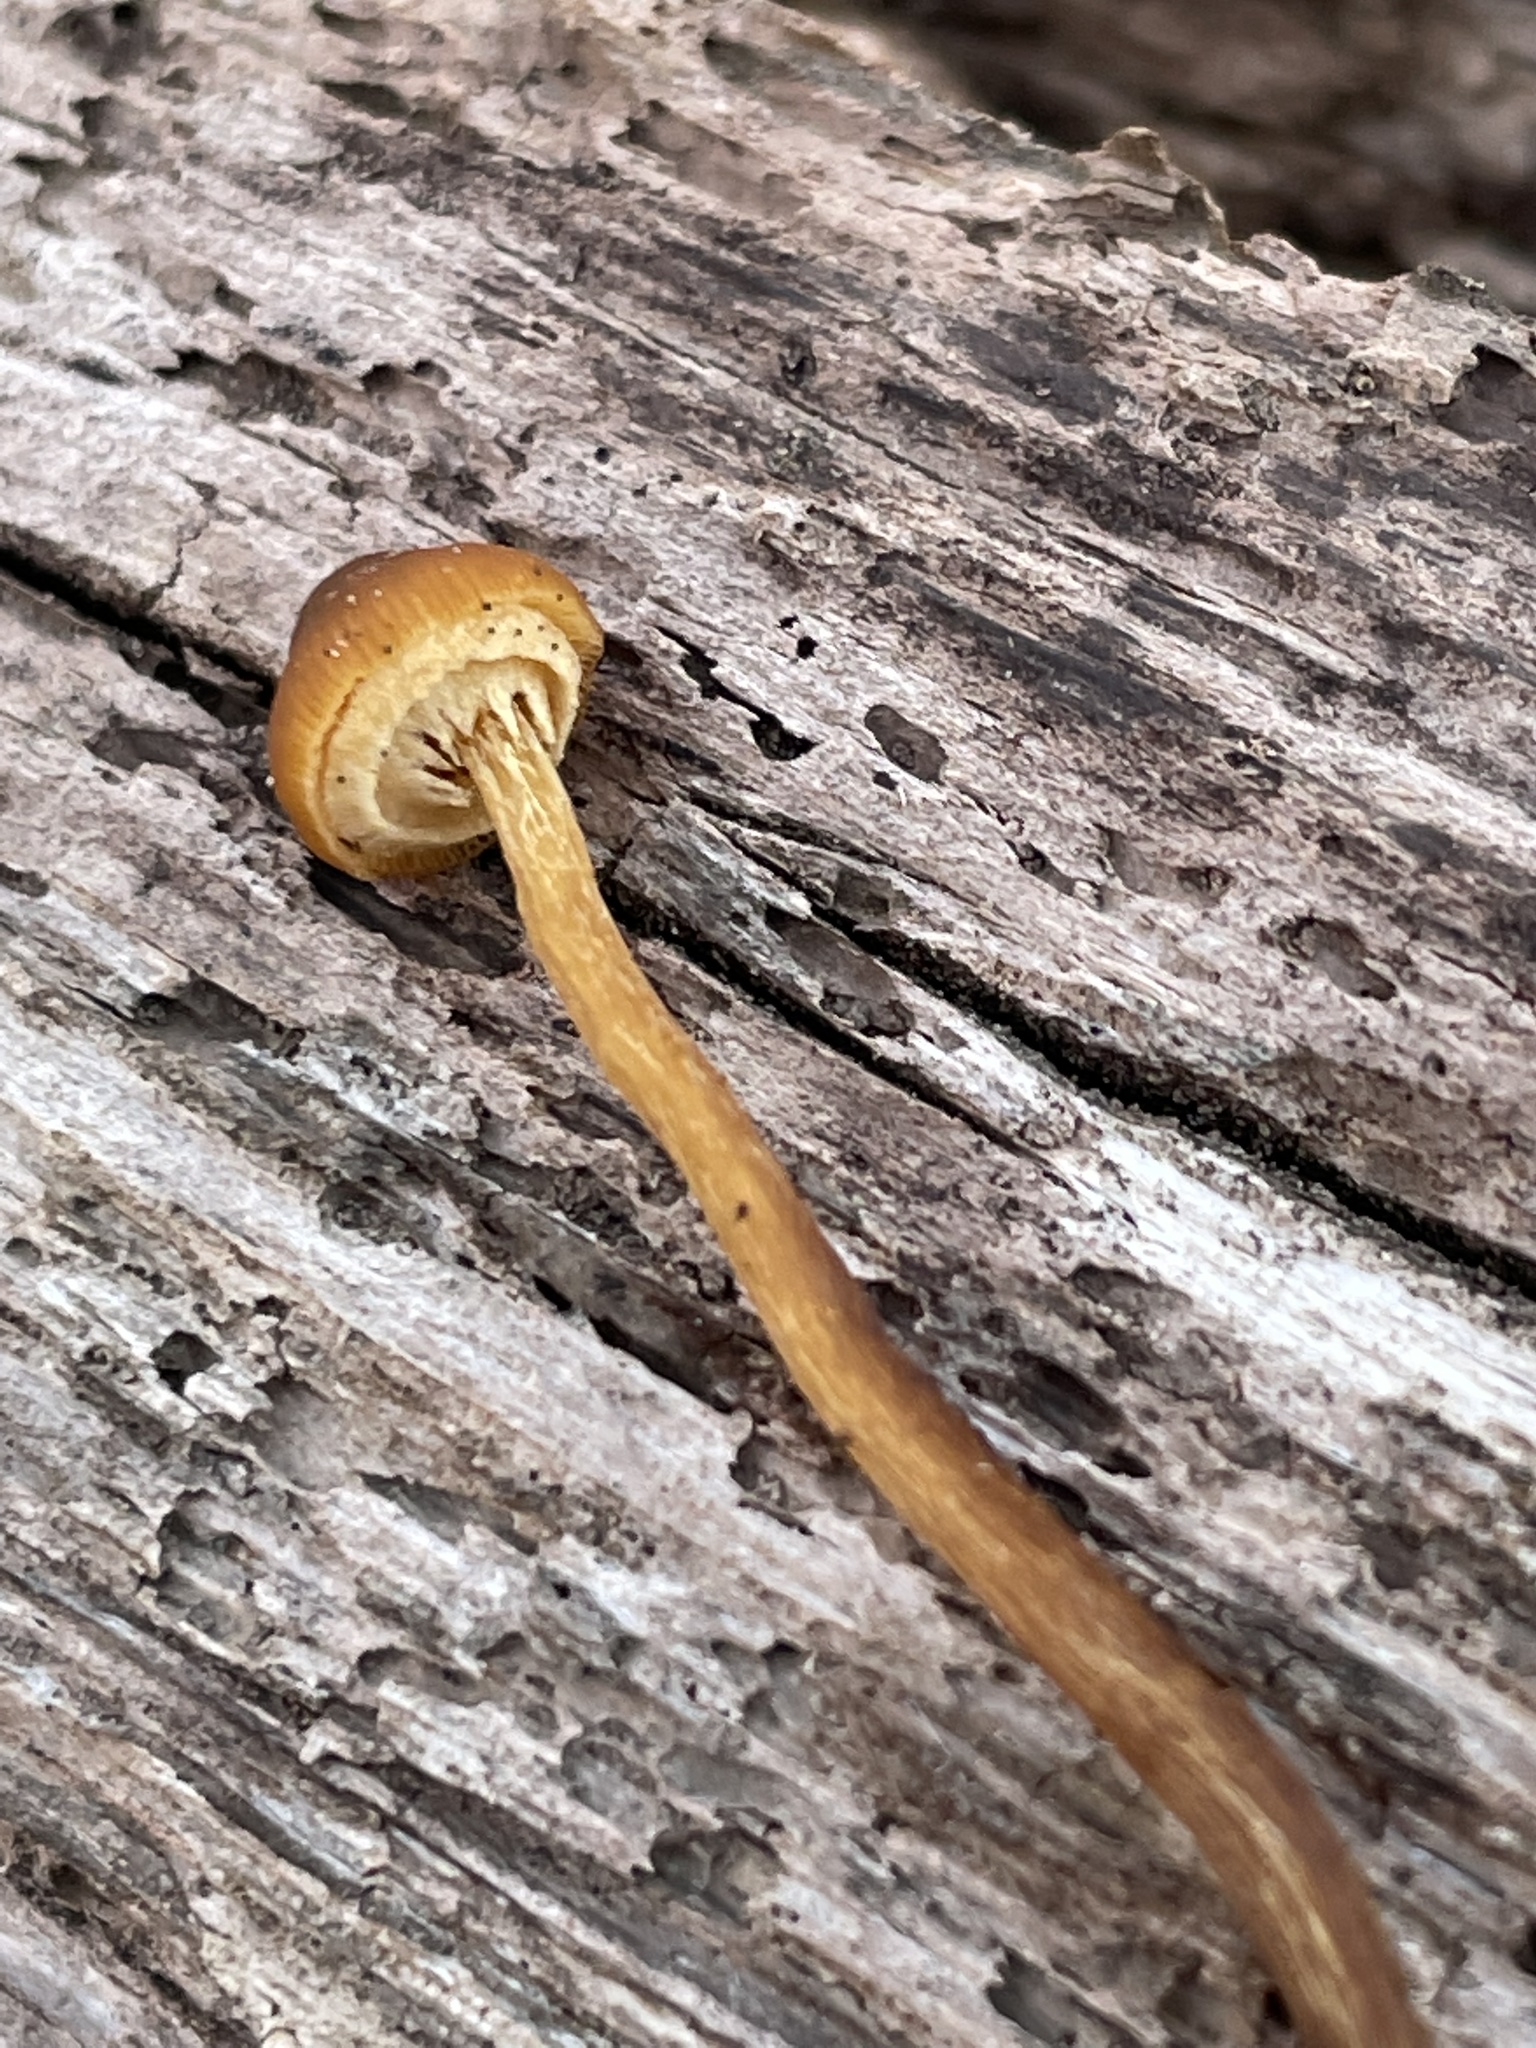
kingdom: Fungi
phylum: Basidiomycota
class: Agaricomycetes
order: Agaricales
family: Bolbitiaceae
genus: Conocybe
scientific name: Conocybe rugosa
